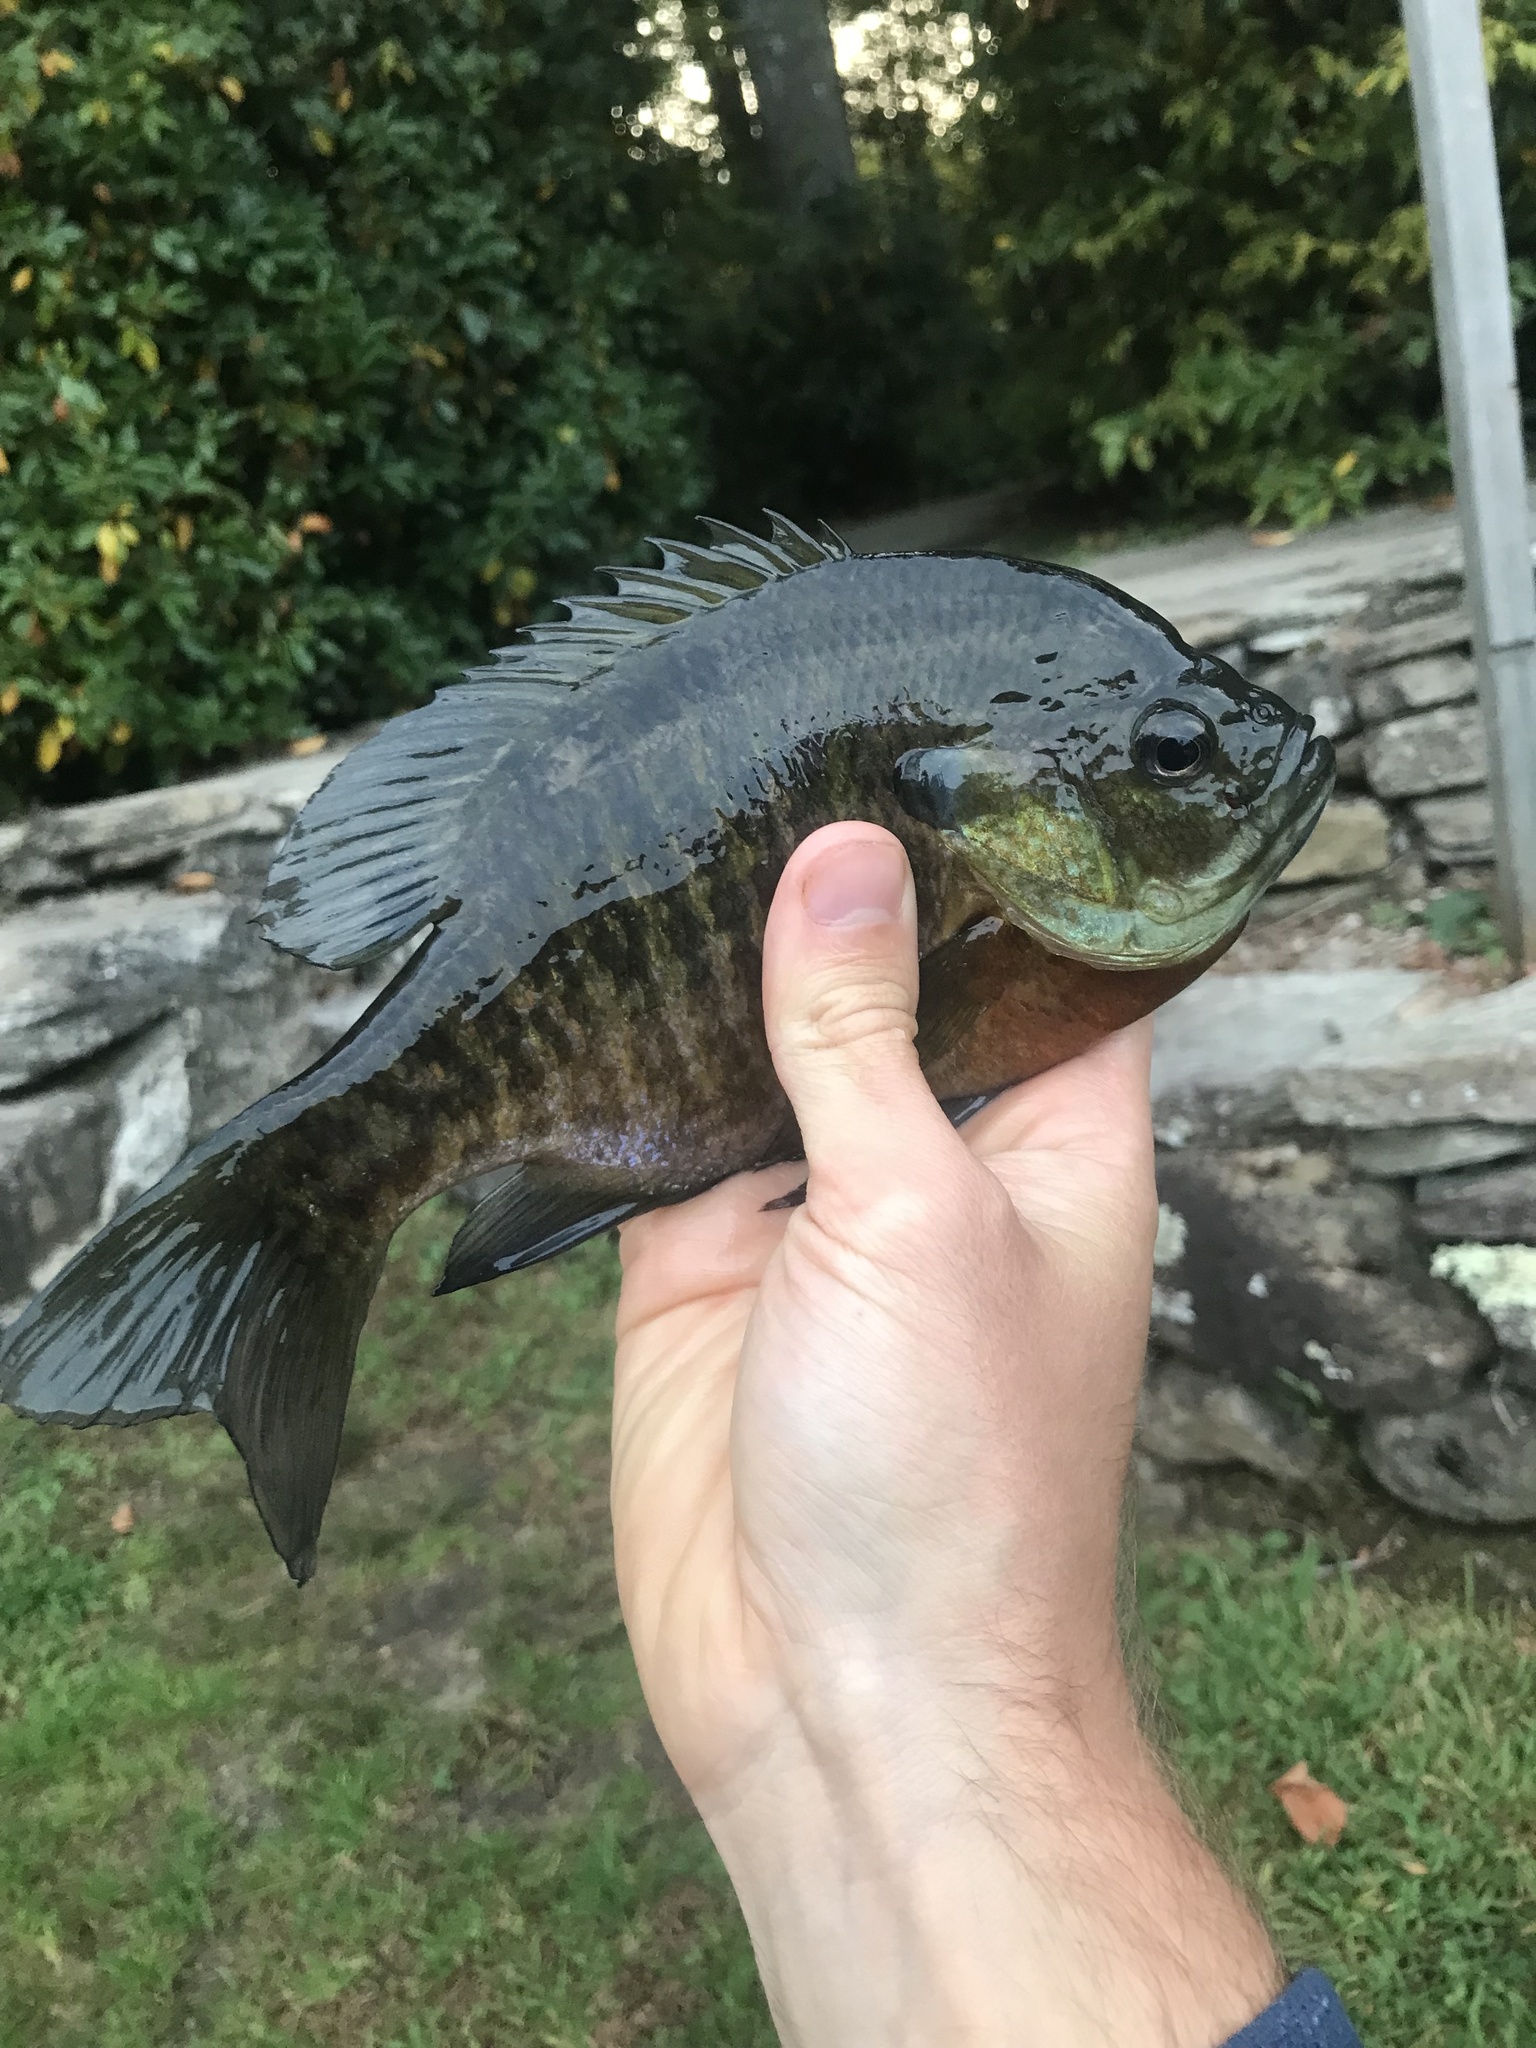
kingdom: Animalia
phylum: Chordata
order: Perciformes
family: Centrarchidae
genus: Lepomis
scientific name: Lepomis macrochirus
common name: Bluegill
